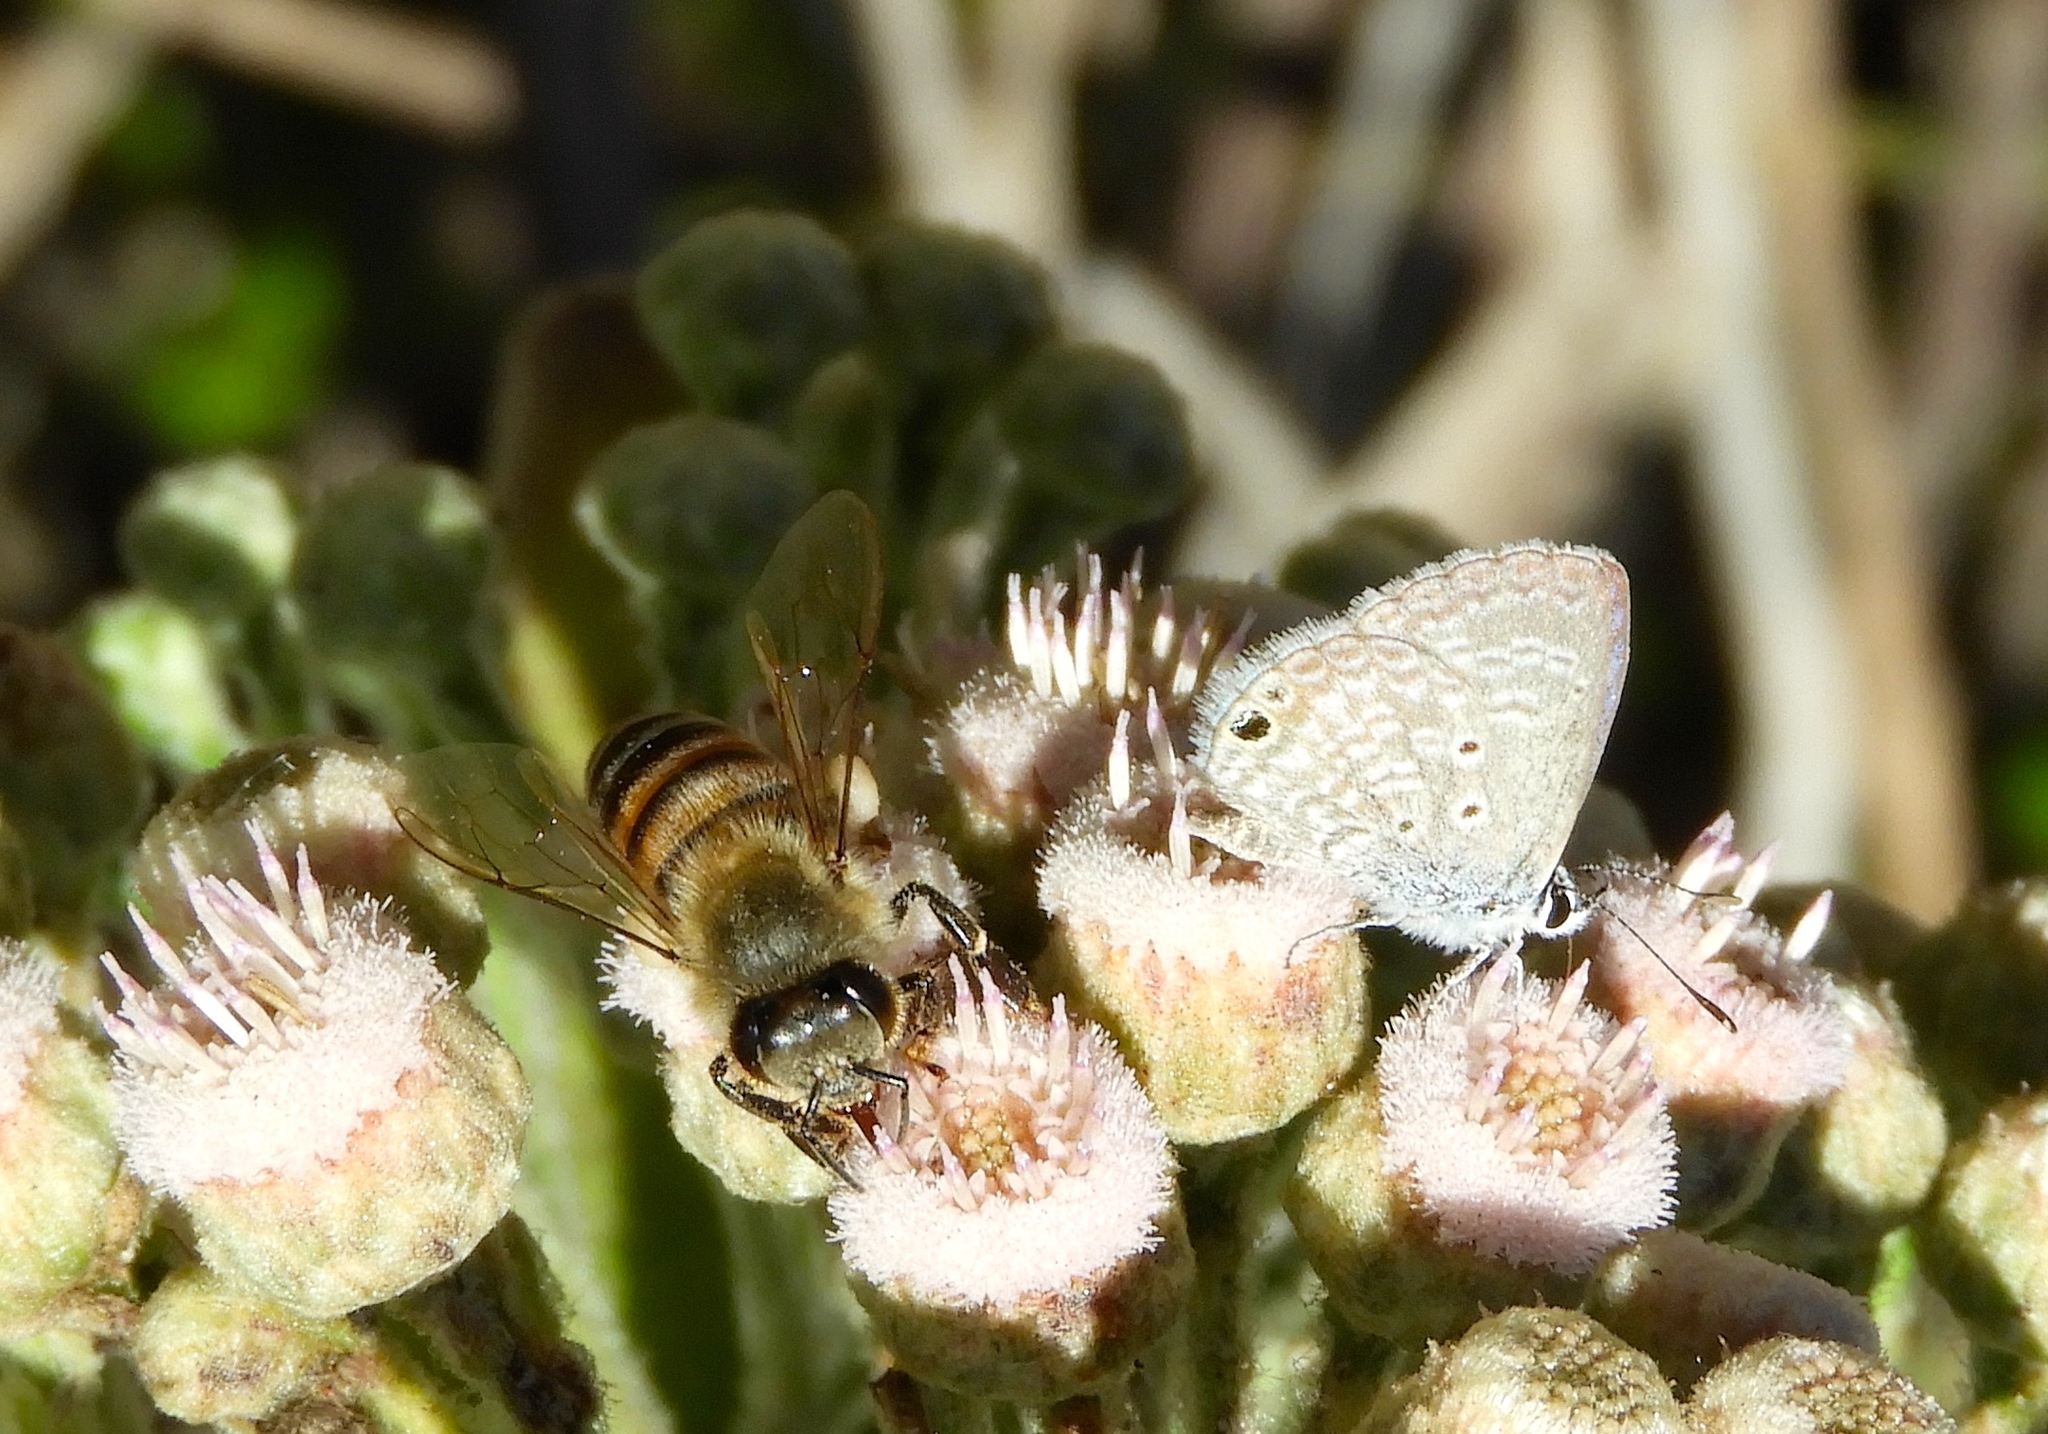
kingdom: Animalia
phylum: Arthropoda
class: Insecta
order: Lepidoptera
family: Lycaenidae
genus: Echinargus
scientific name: Echinargus isola
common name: Reakirt's blue
